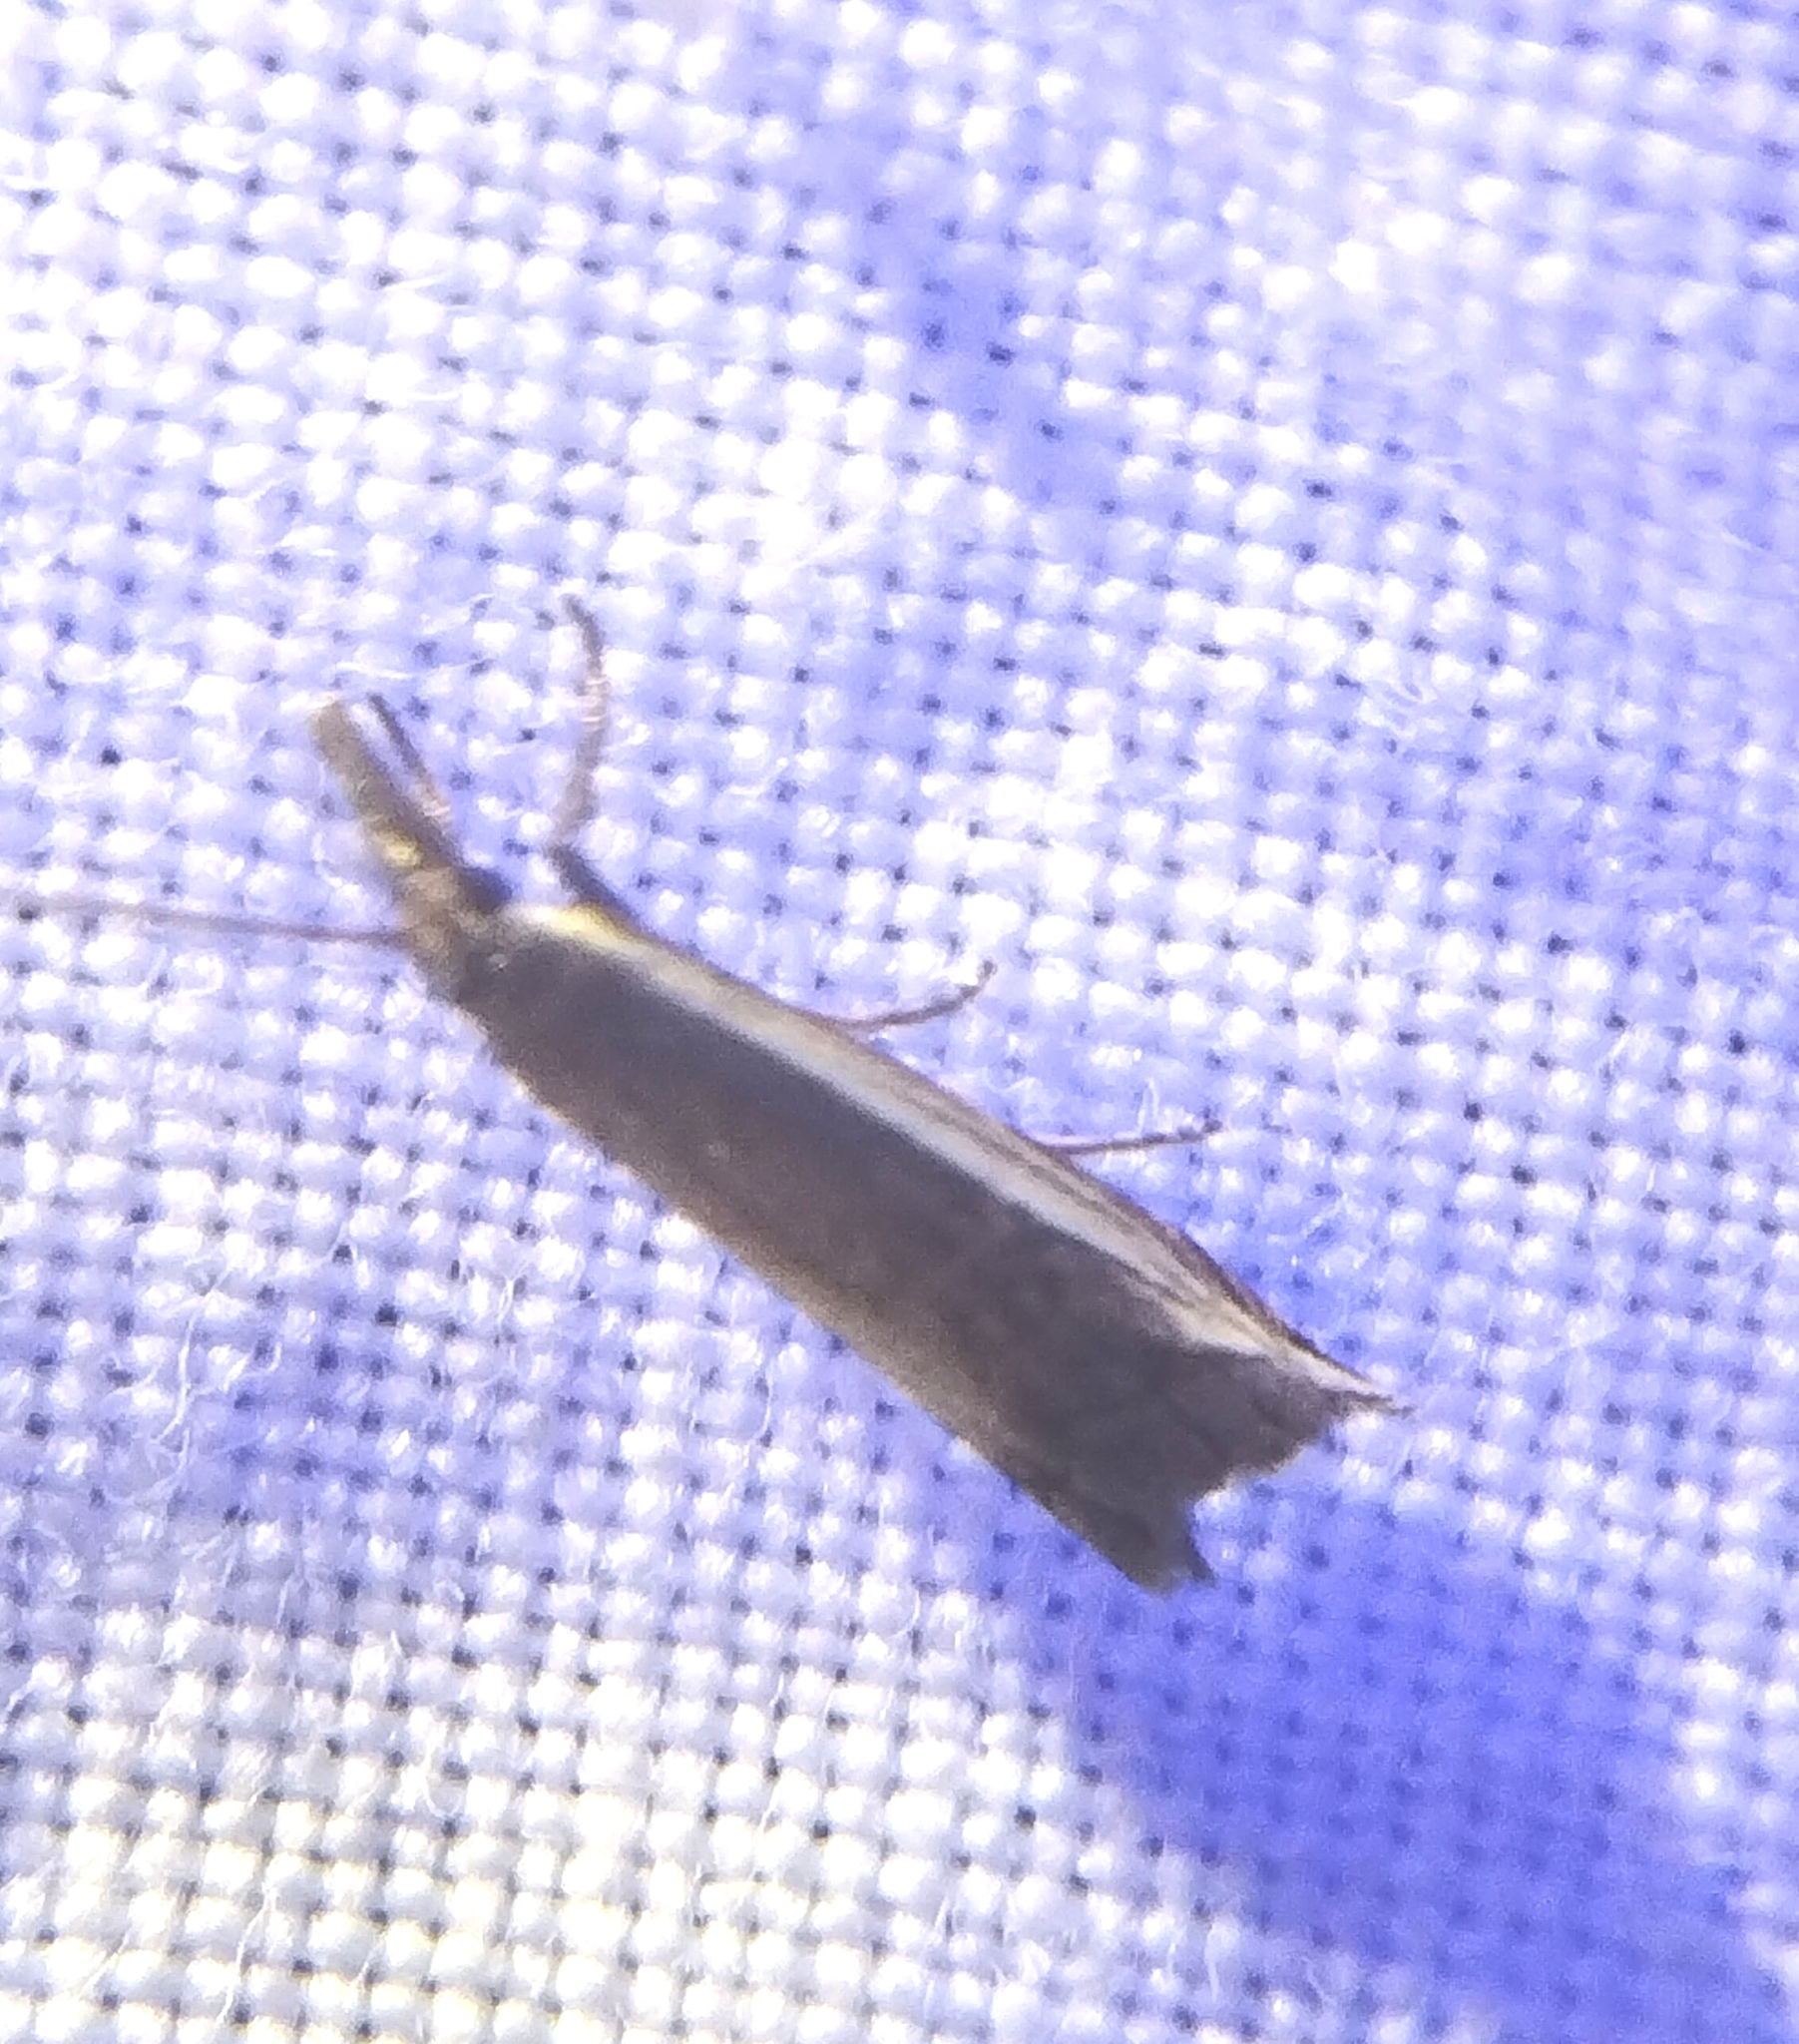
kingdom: Animalia
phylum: Arthropoda
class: Insecta
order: Lepidoptera
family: Crambidae
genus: Raphiptera
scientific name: Raphiptera argillaceellus
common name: Diminutive grass-veneer
